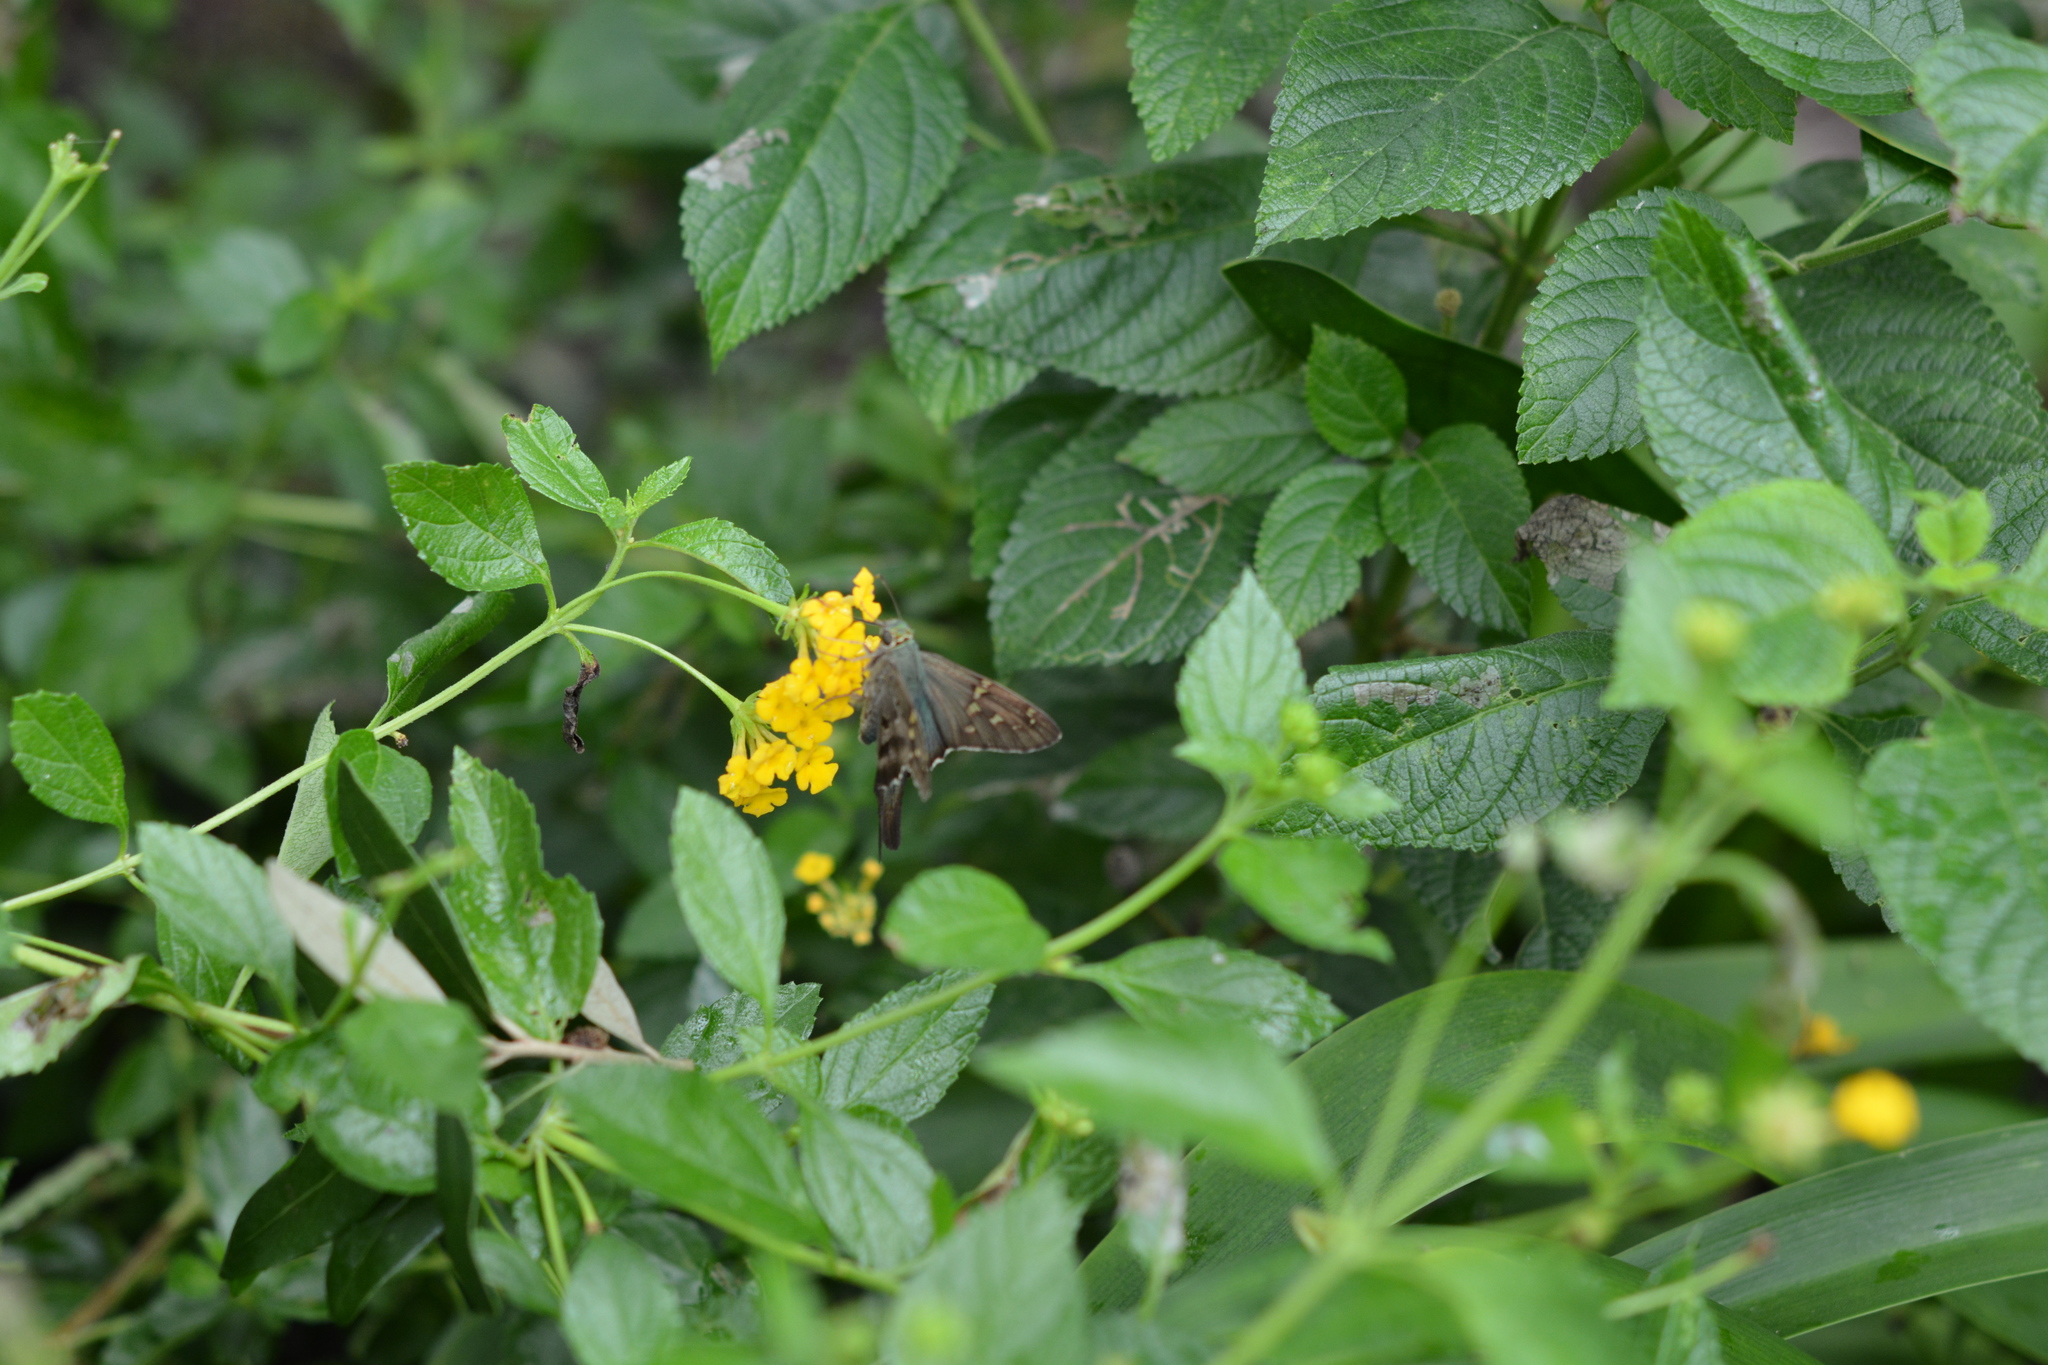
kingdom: Animalia
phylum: Arthropoda
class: Insecta
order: Lepidoptera
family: Hesperiidae
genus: Urbanus
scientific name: Urbanus proteus
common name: Long-tailed skipper
